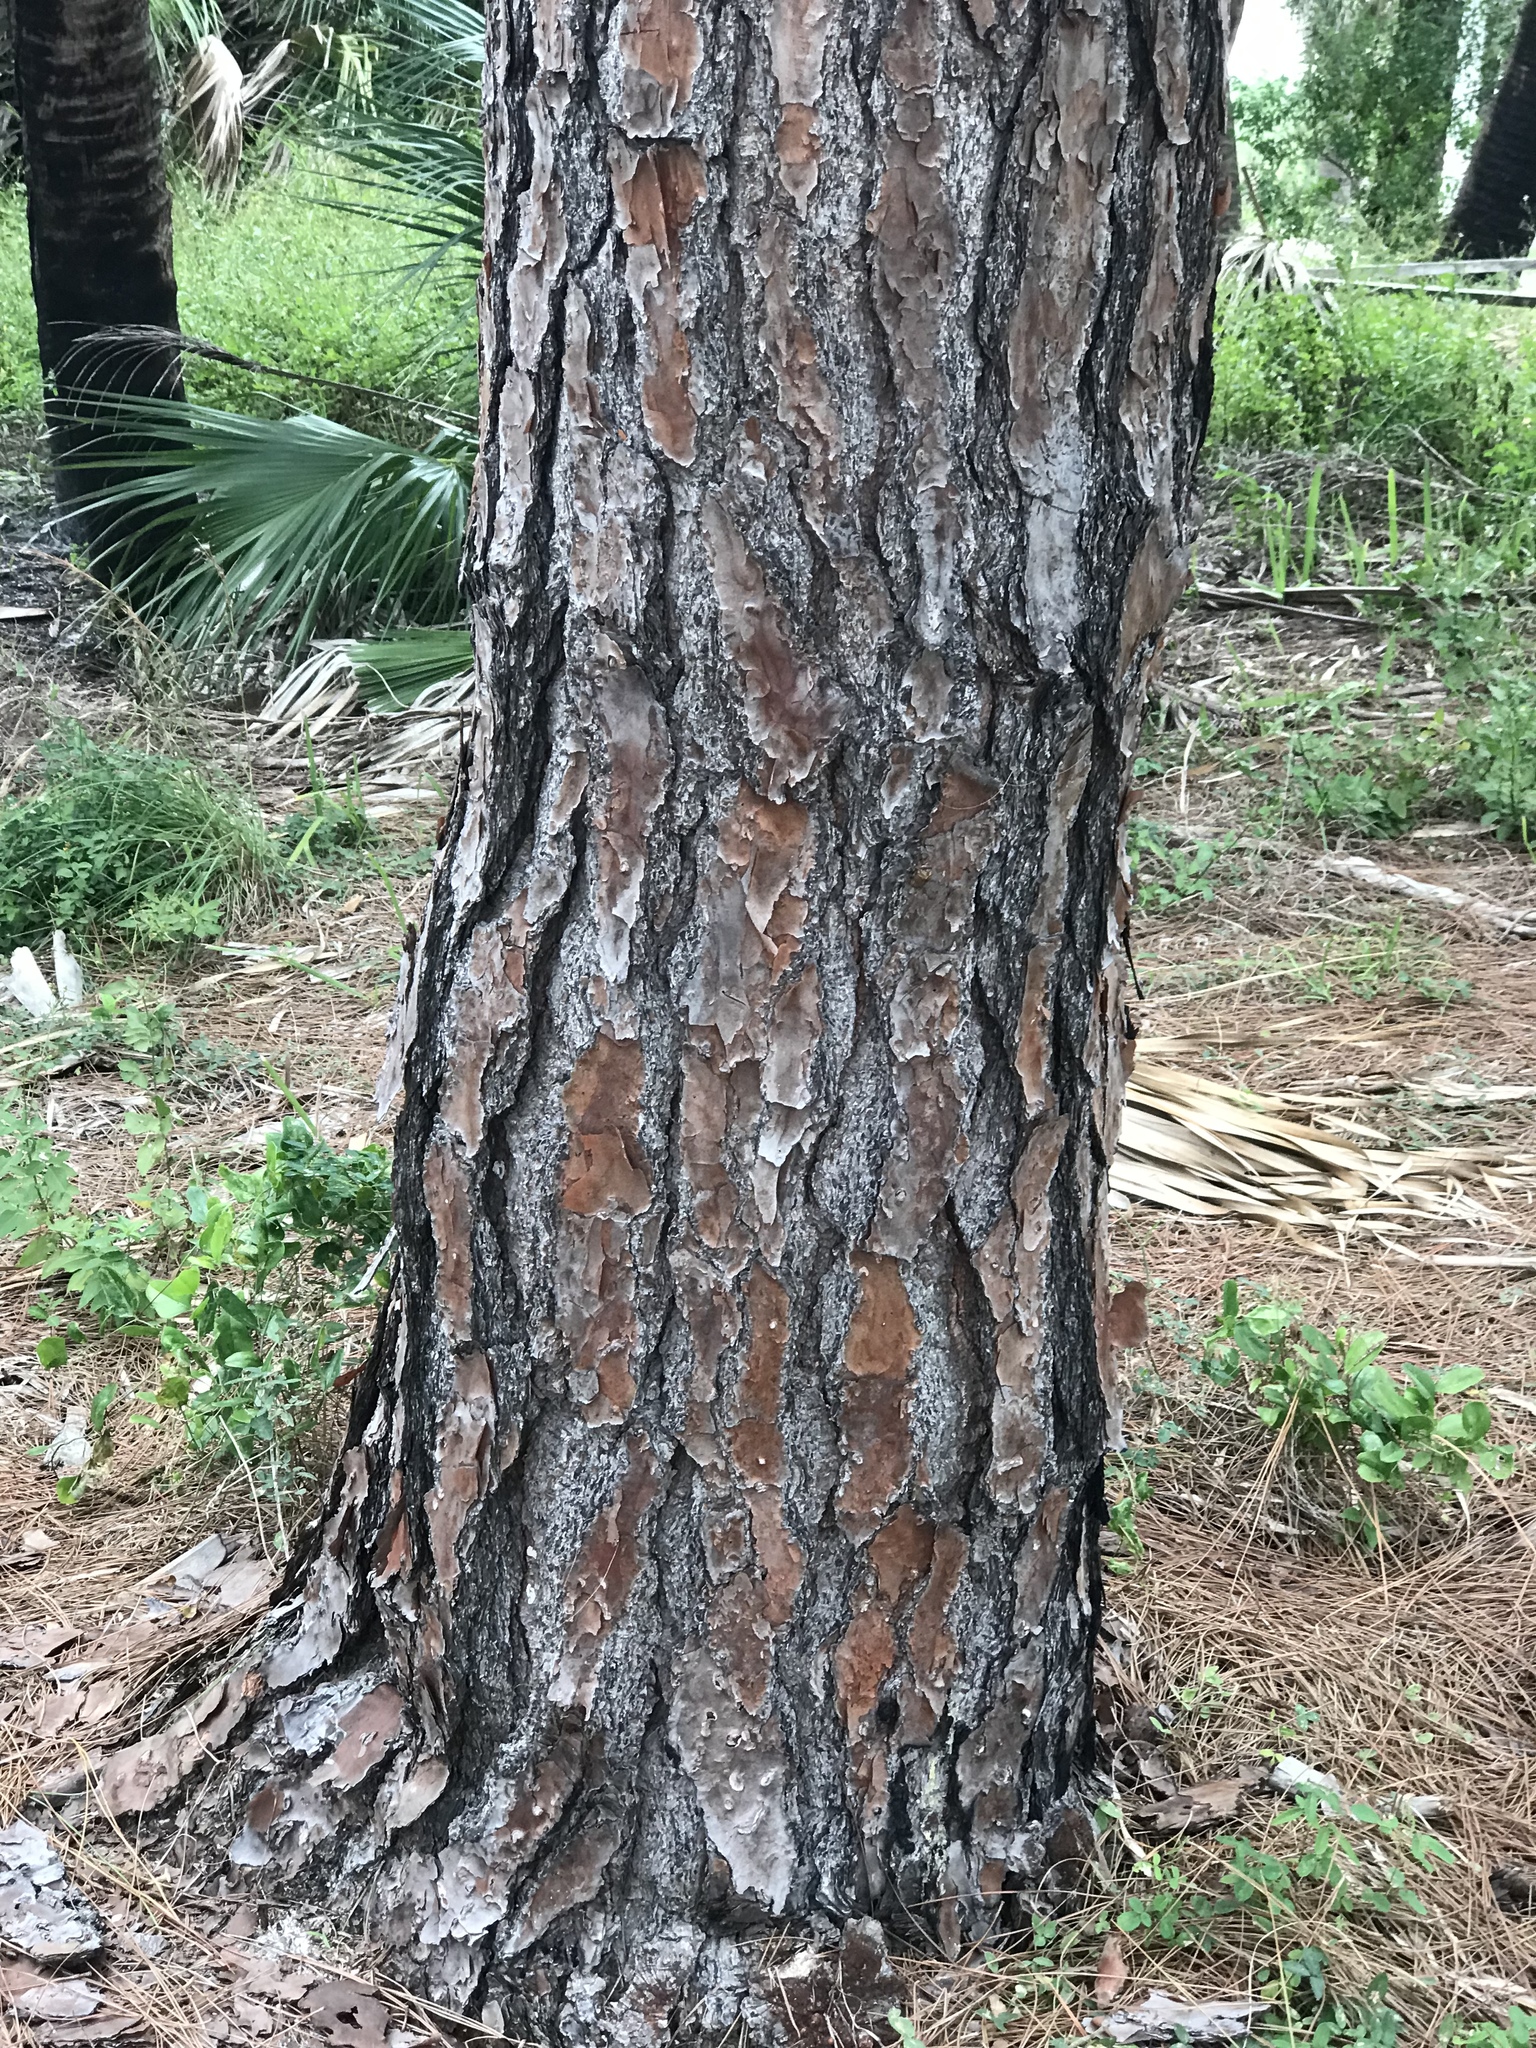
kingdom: Plantae
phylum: Tracheophyta
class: Pinopsida
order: Pinales
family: Pinaceae
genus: Pinus
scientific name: Pinus elliottii
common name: Slash pine
